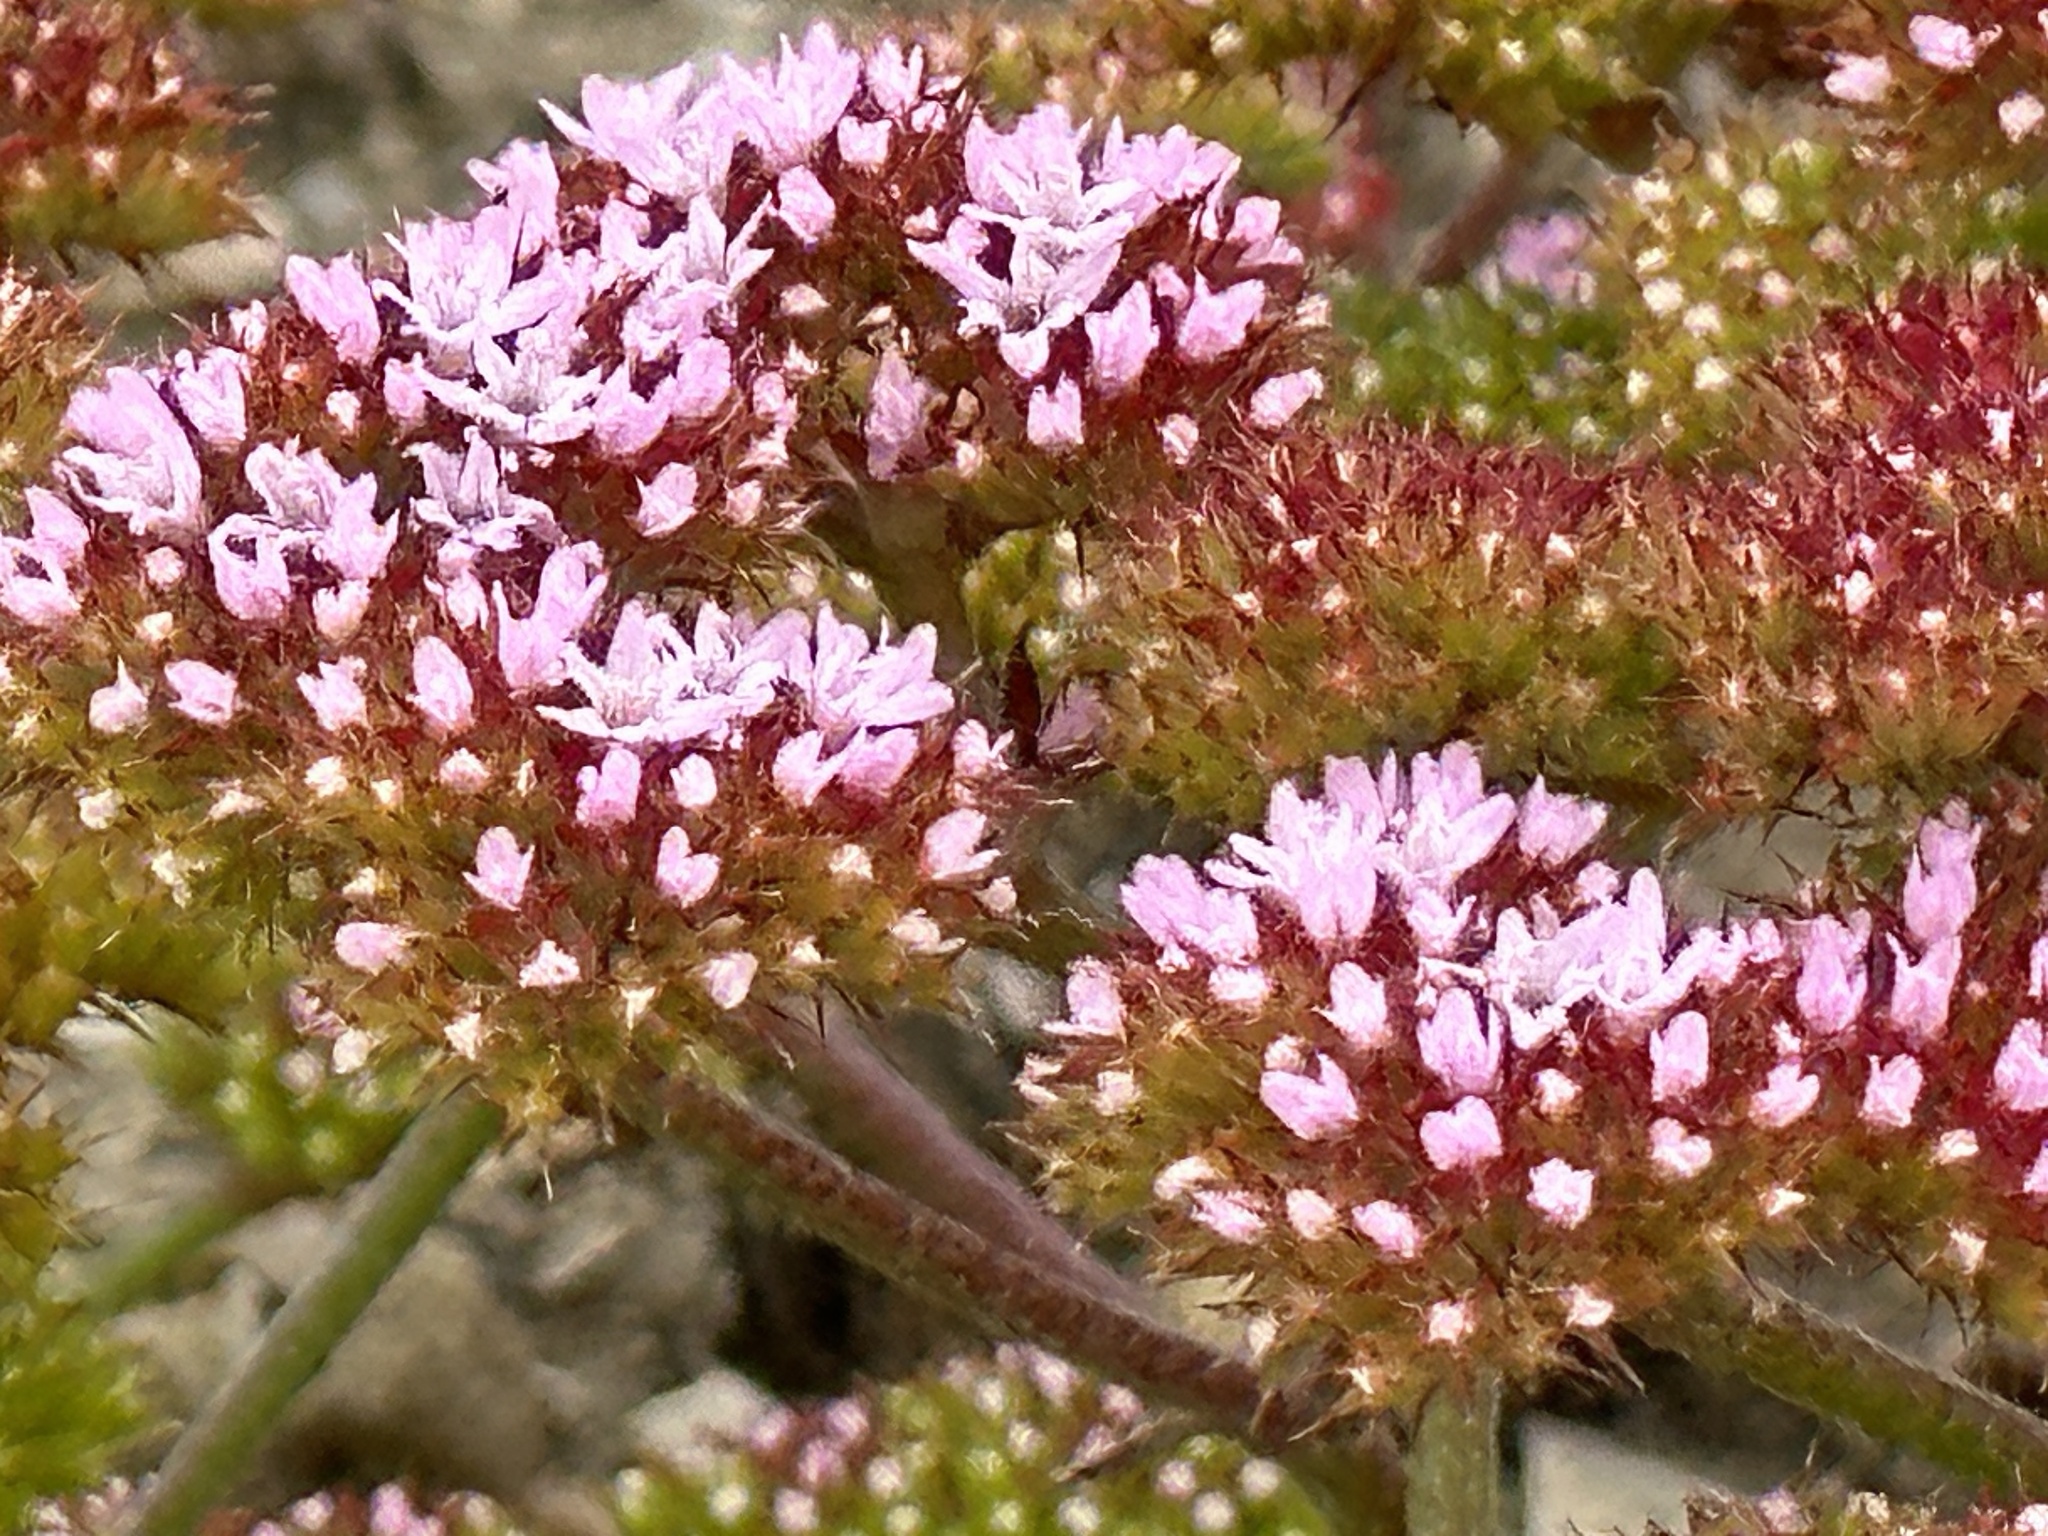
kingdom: Plantae
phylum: Tracheophyta
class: Magnoliopsida
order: Caryophyllales
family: Polygonaceae
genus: Chorizanthe
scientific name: Chorizanthe staticoides
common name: Turkish rugging
